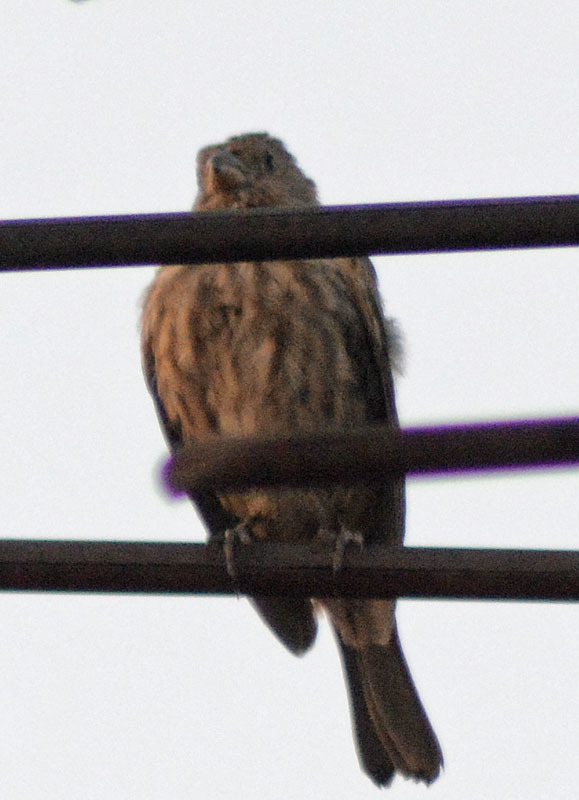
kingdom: Animalia
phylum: Chordata
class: Aves
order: Passeriformes
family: Fringillidae
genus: Haemorhous
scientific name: Haemorhous mexicanus
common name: House finch
